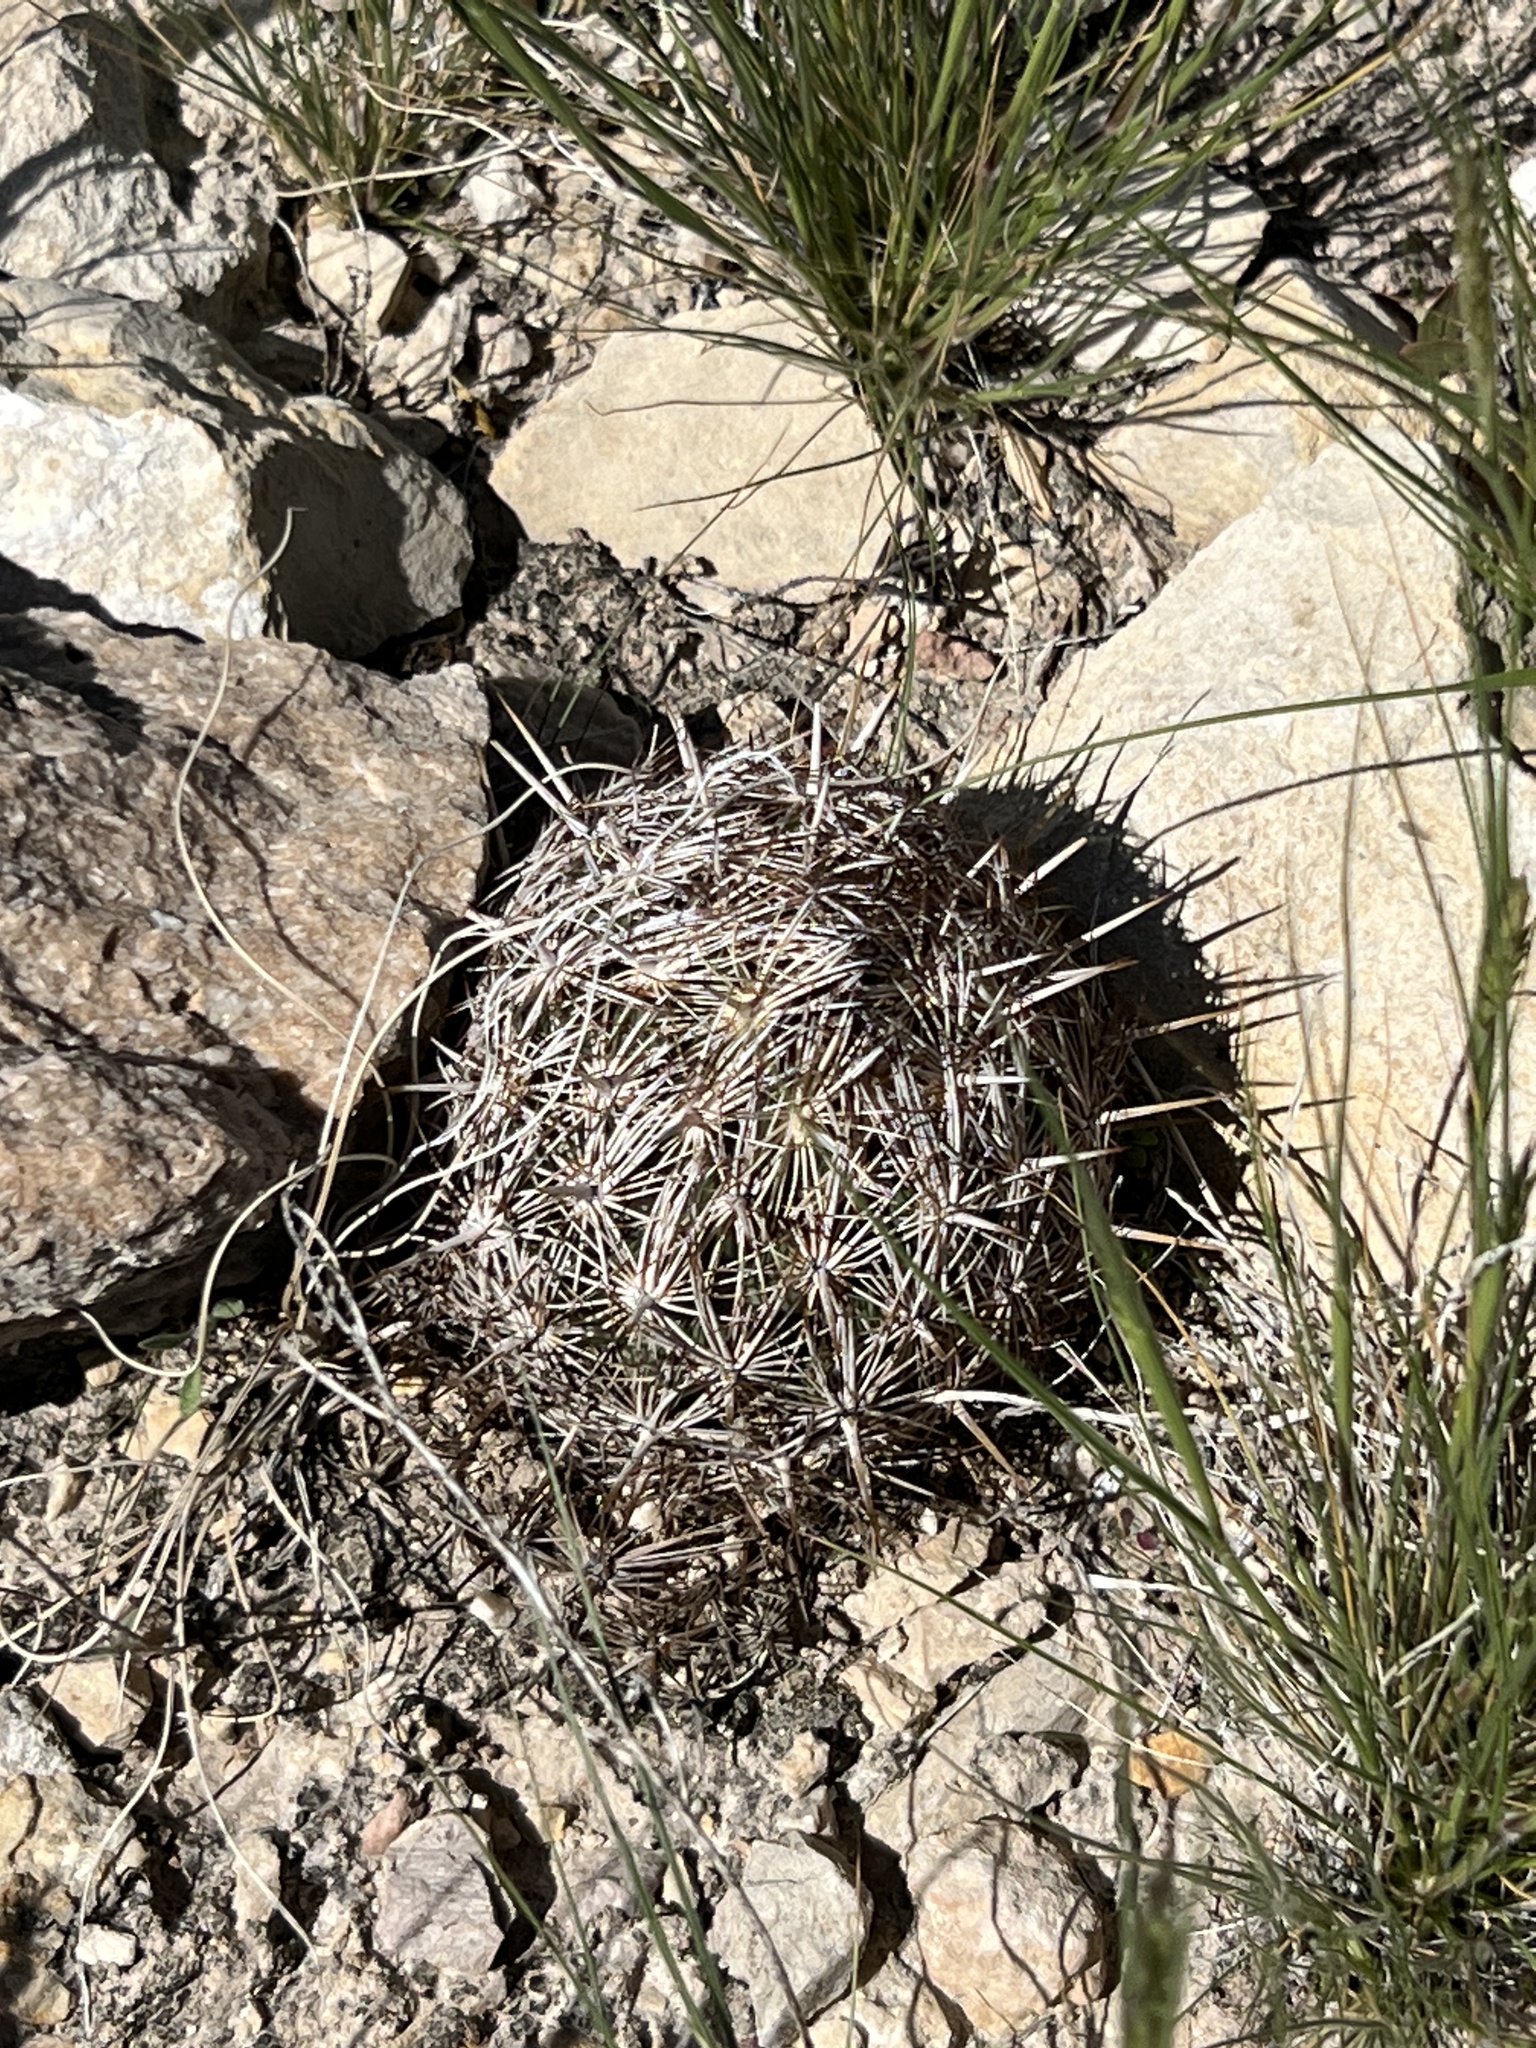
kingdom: Plantae
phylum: Tracheophyta
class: Magnoliopsida
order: Caryophyllales
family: Cactaceae
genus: Coryphantha
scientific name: Coryphantha echinus
